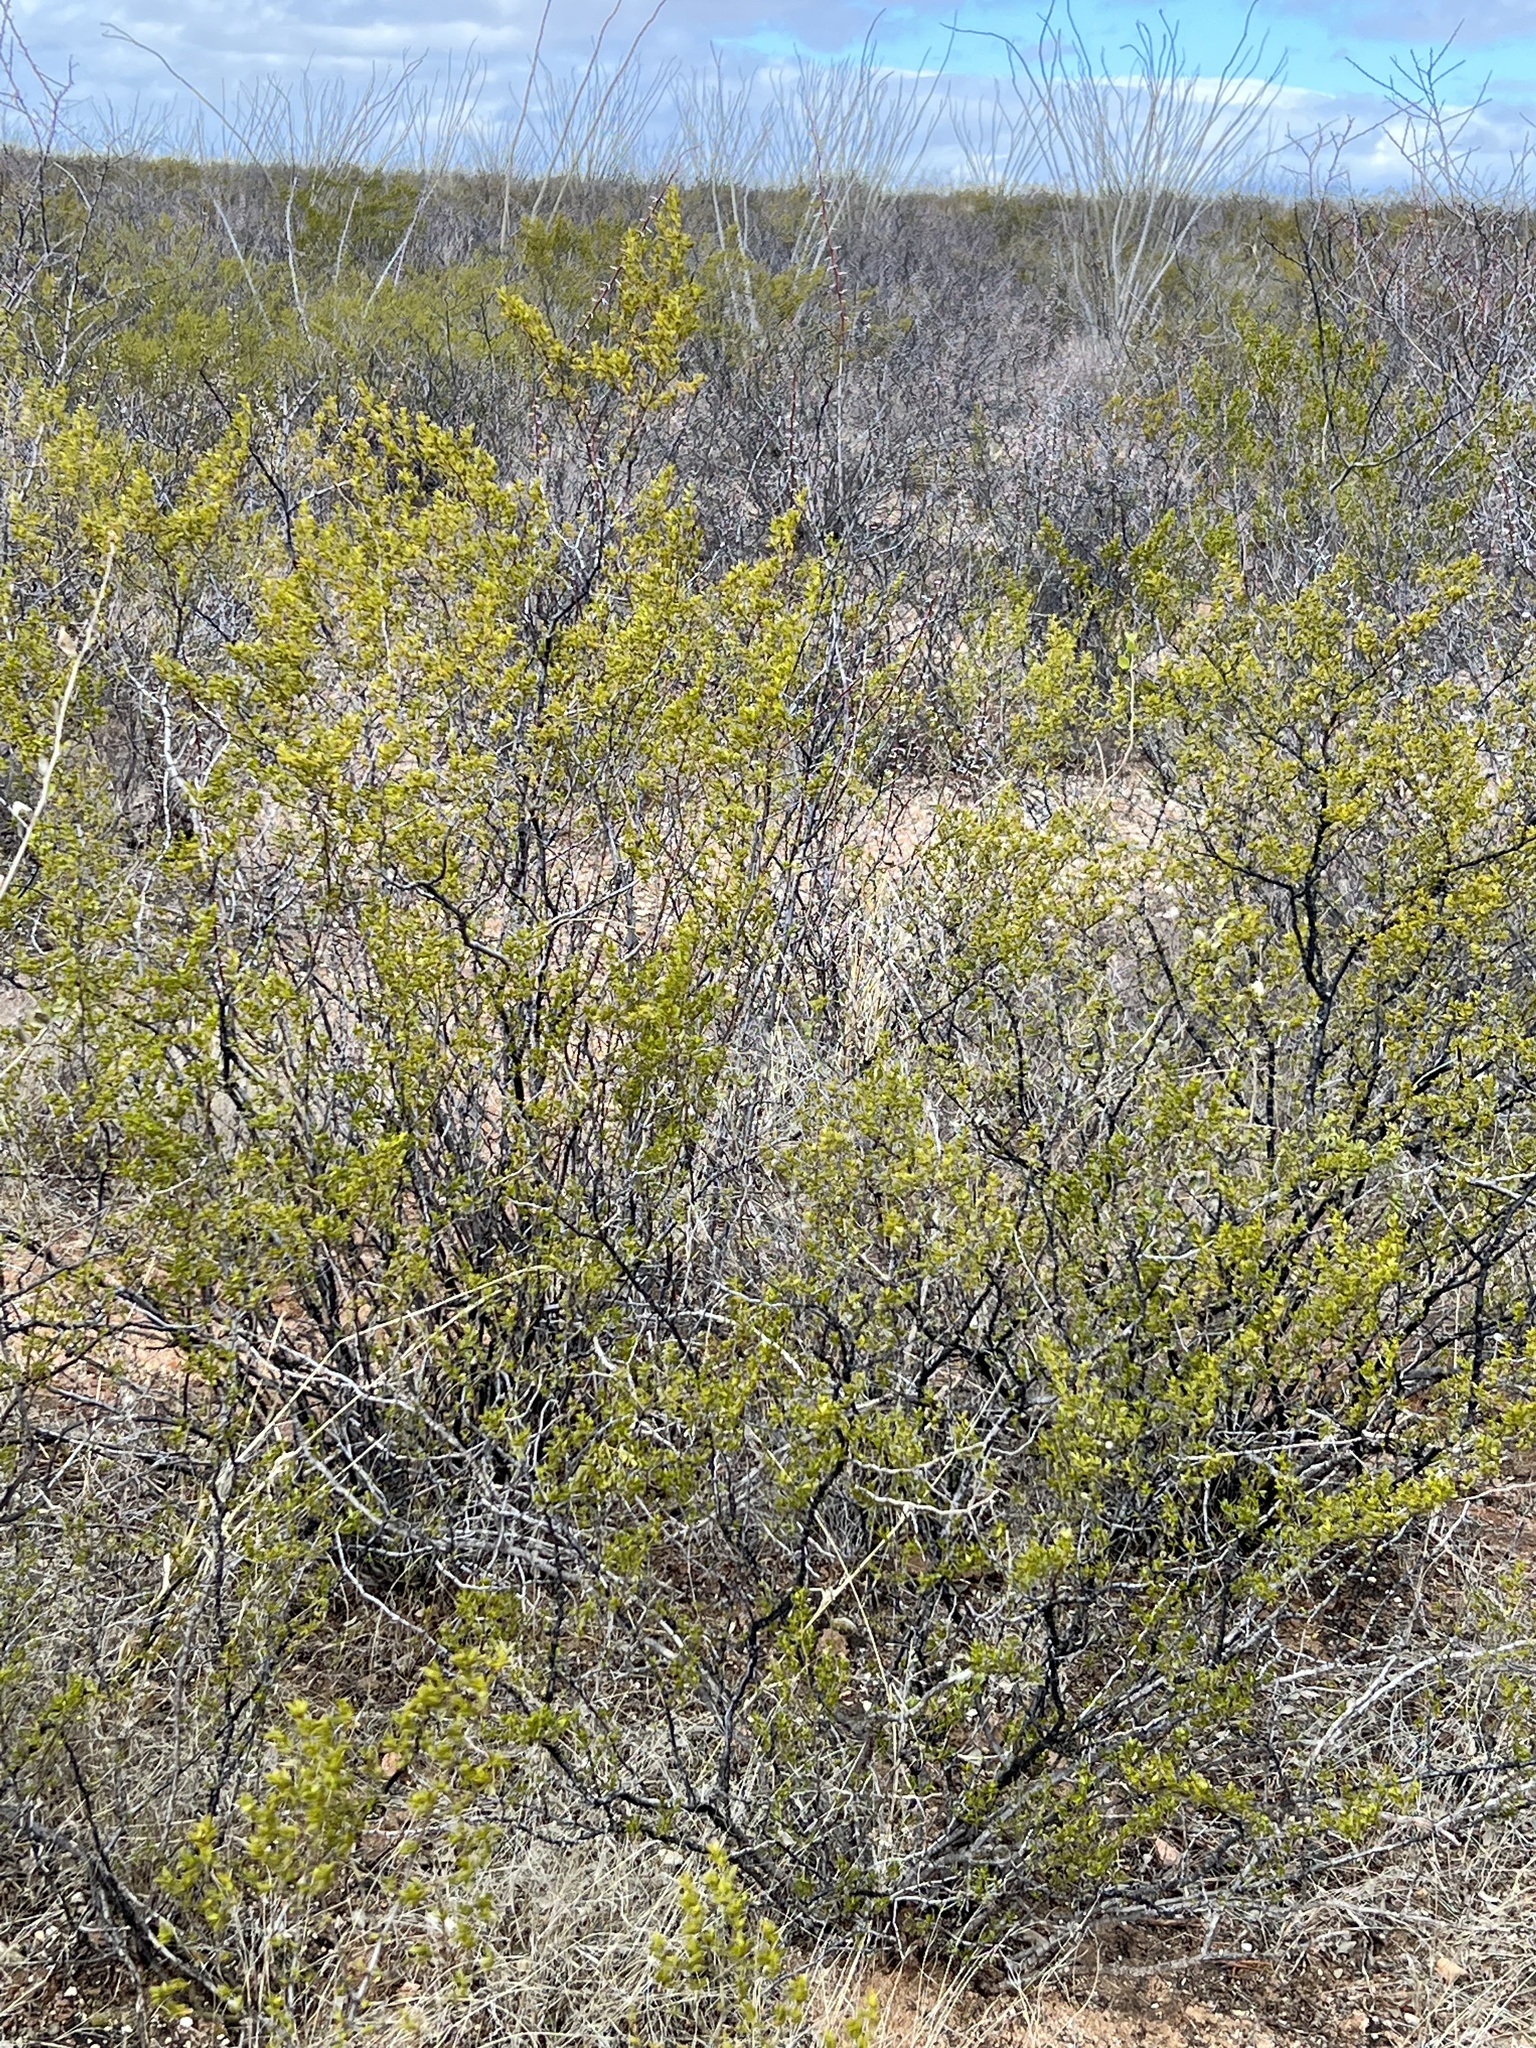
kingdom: Plantae
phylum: Tracheophyta
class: Magnoliopsida
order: Zygophyllales
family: Zygophyllaceae
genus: Larrea
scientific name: Larrea tridentata
